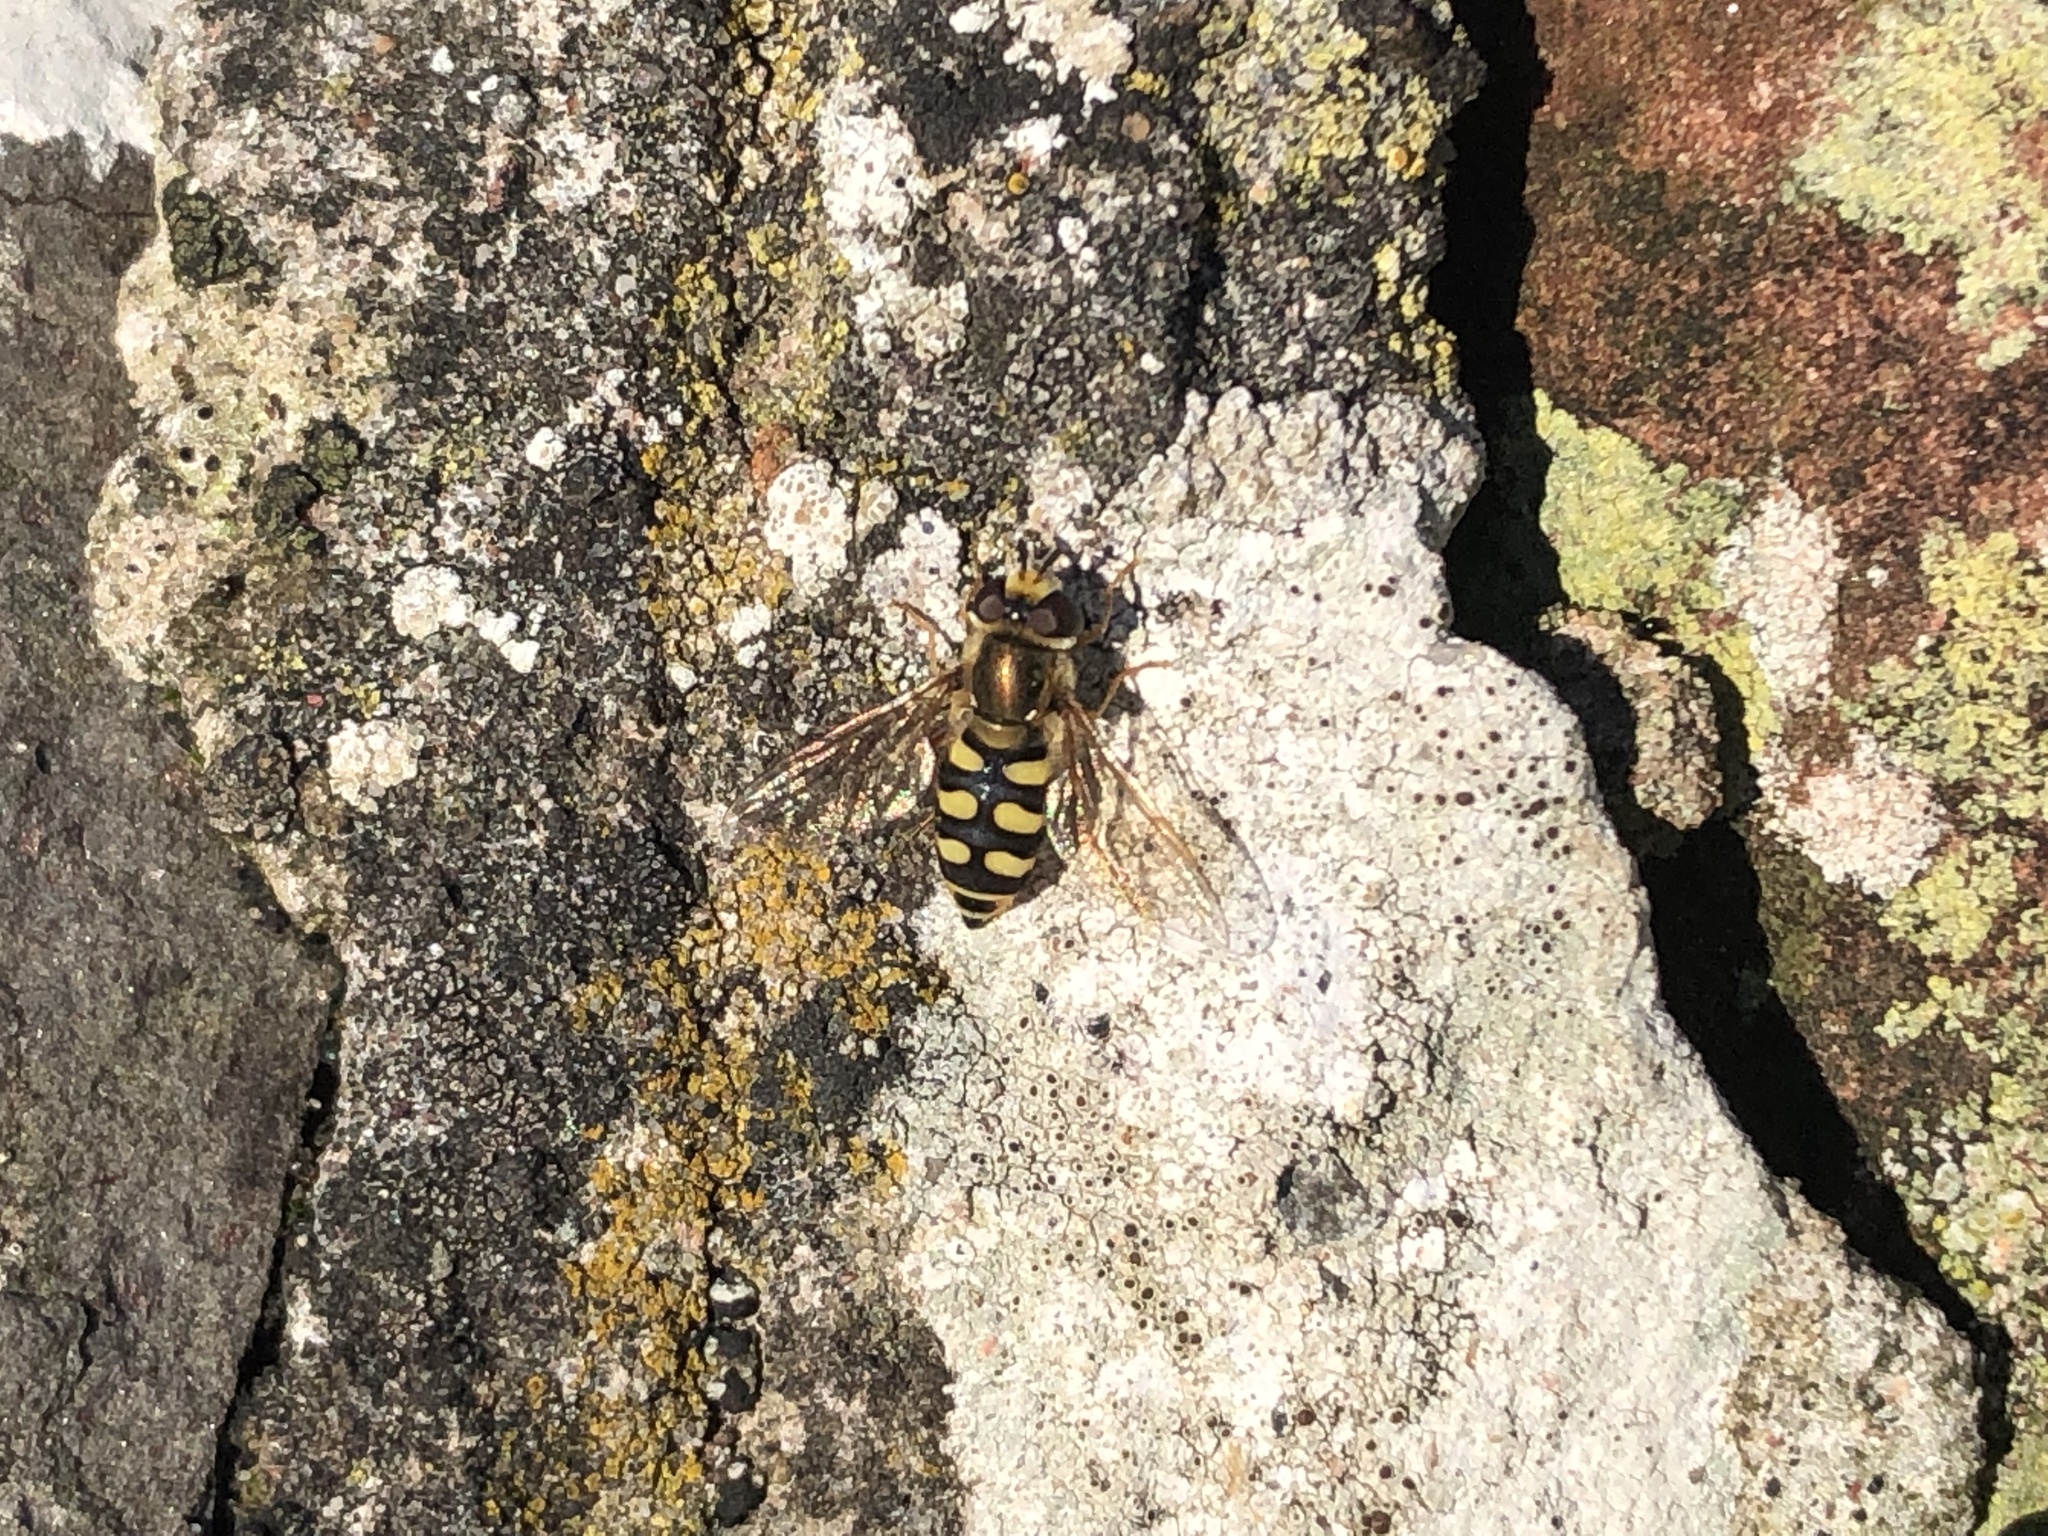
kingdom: Animalia
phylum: Arthropoda
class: Insecta
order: Diptera
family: Syrphidae
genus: Eupeodes
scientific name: Eupeodes corollae
